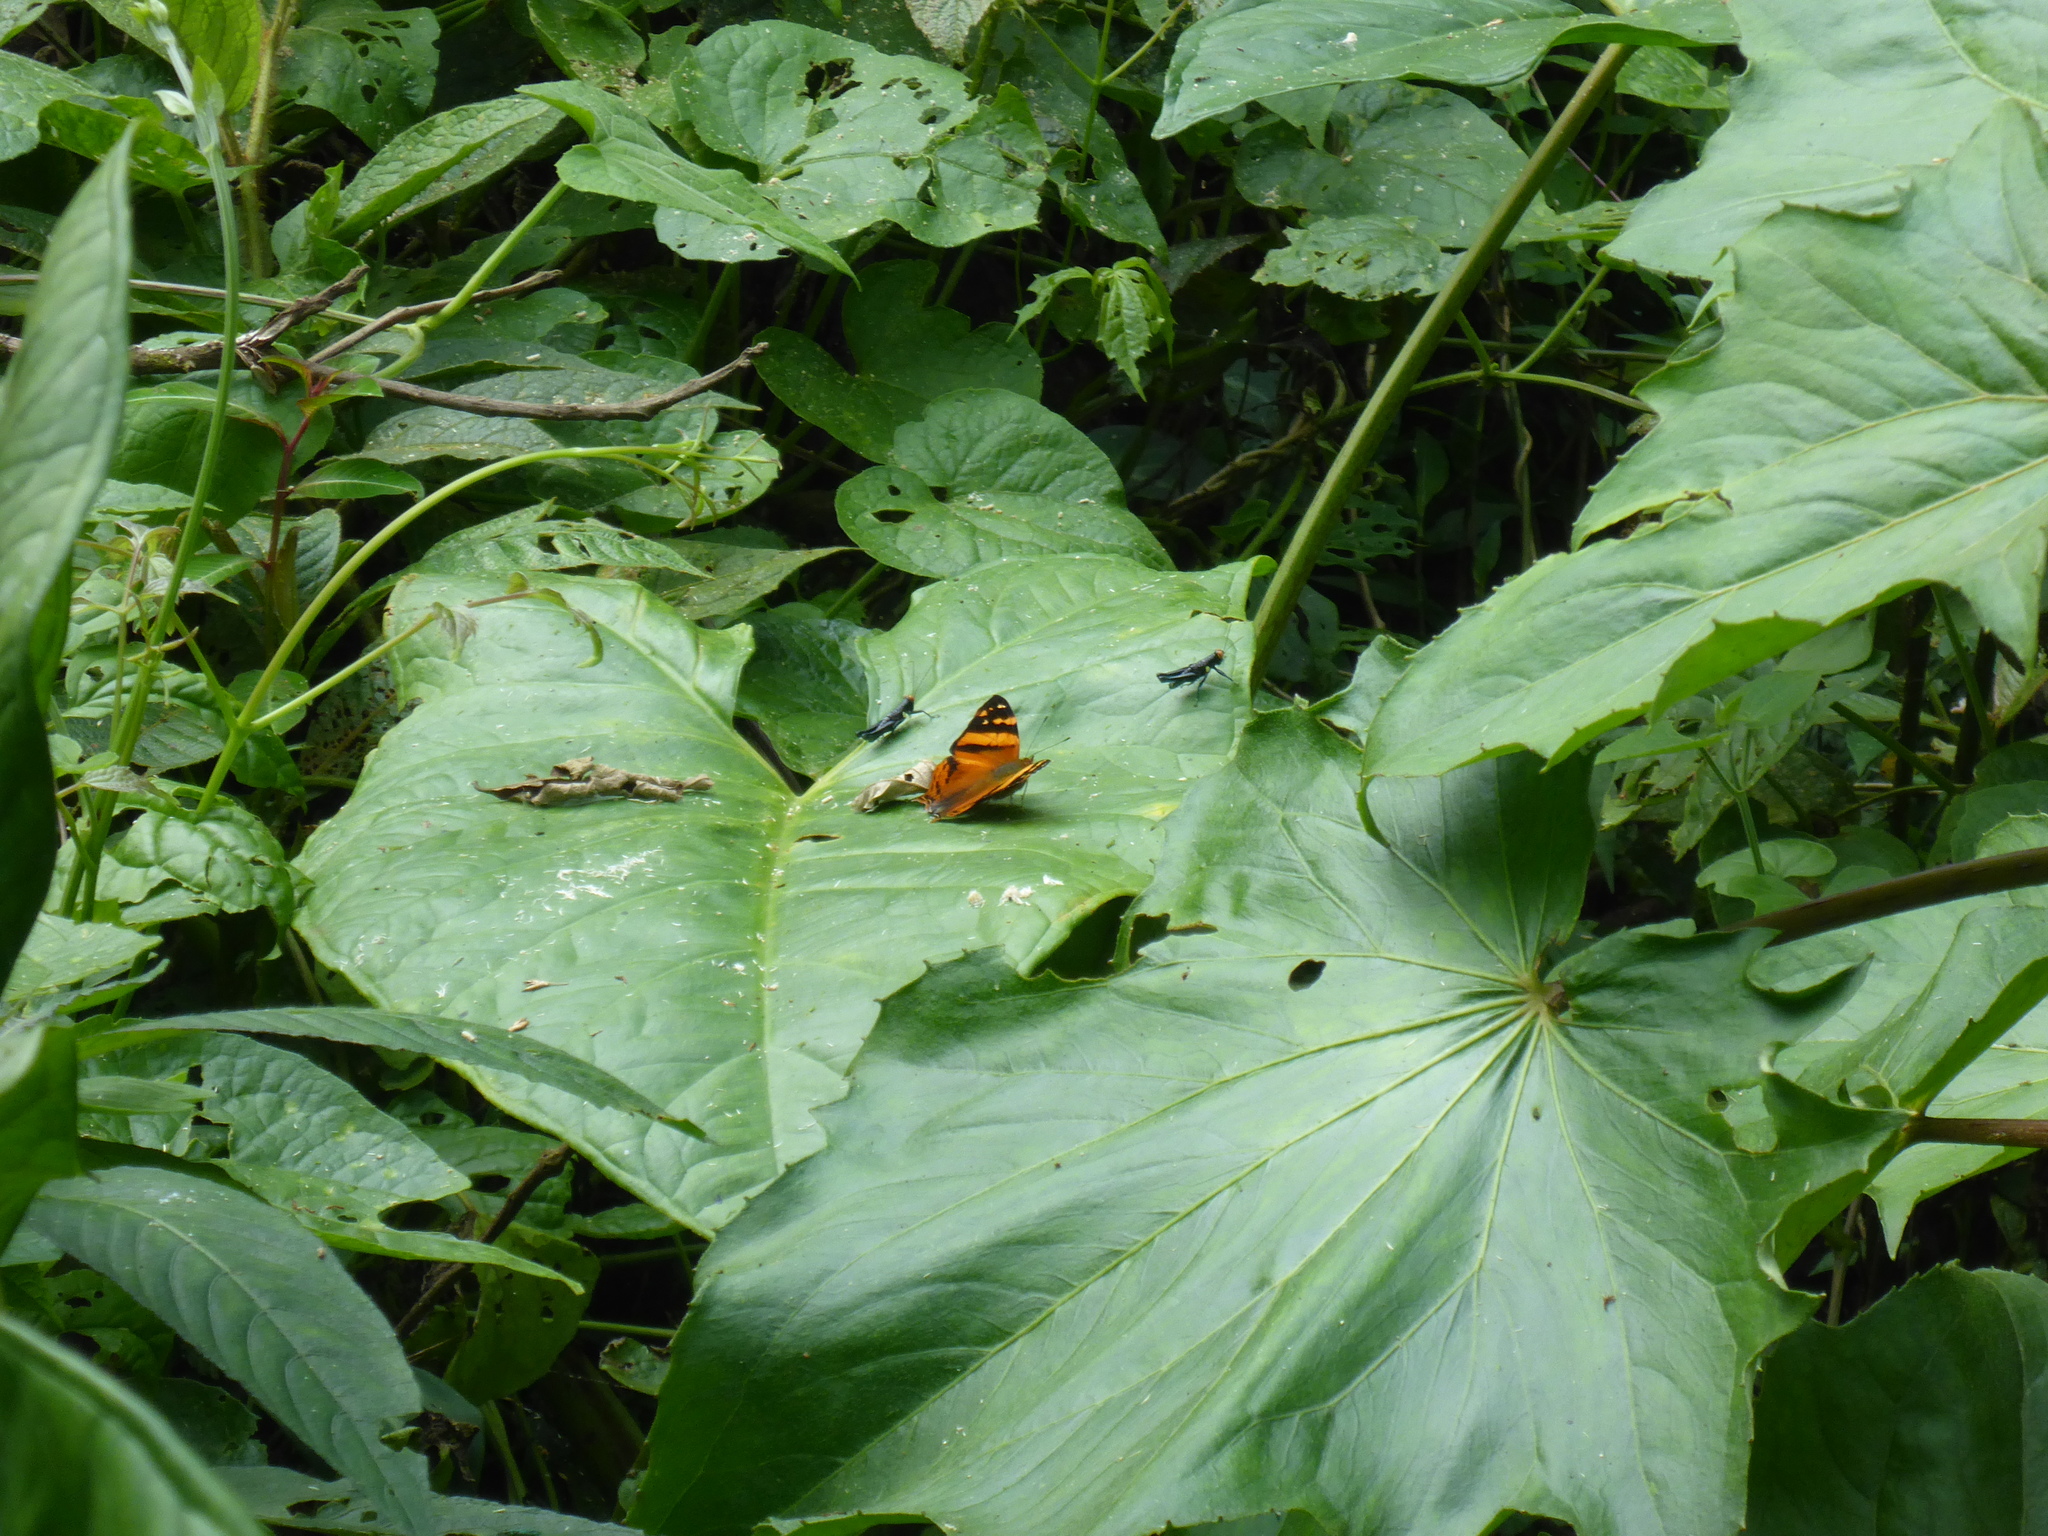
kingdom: Animalia
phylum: Arthropoda
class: Insecta
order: Lepidoptera
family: Nymphalidae
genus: Hypanartia
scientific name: Hypanartia lethe
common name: Orange mapwing
